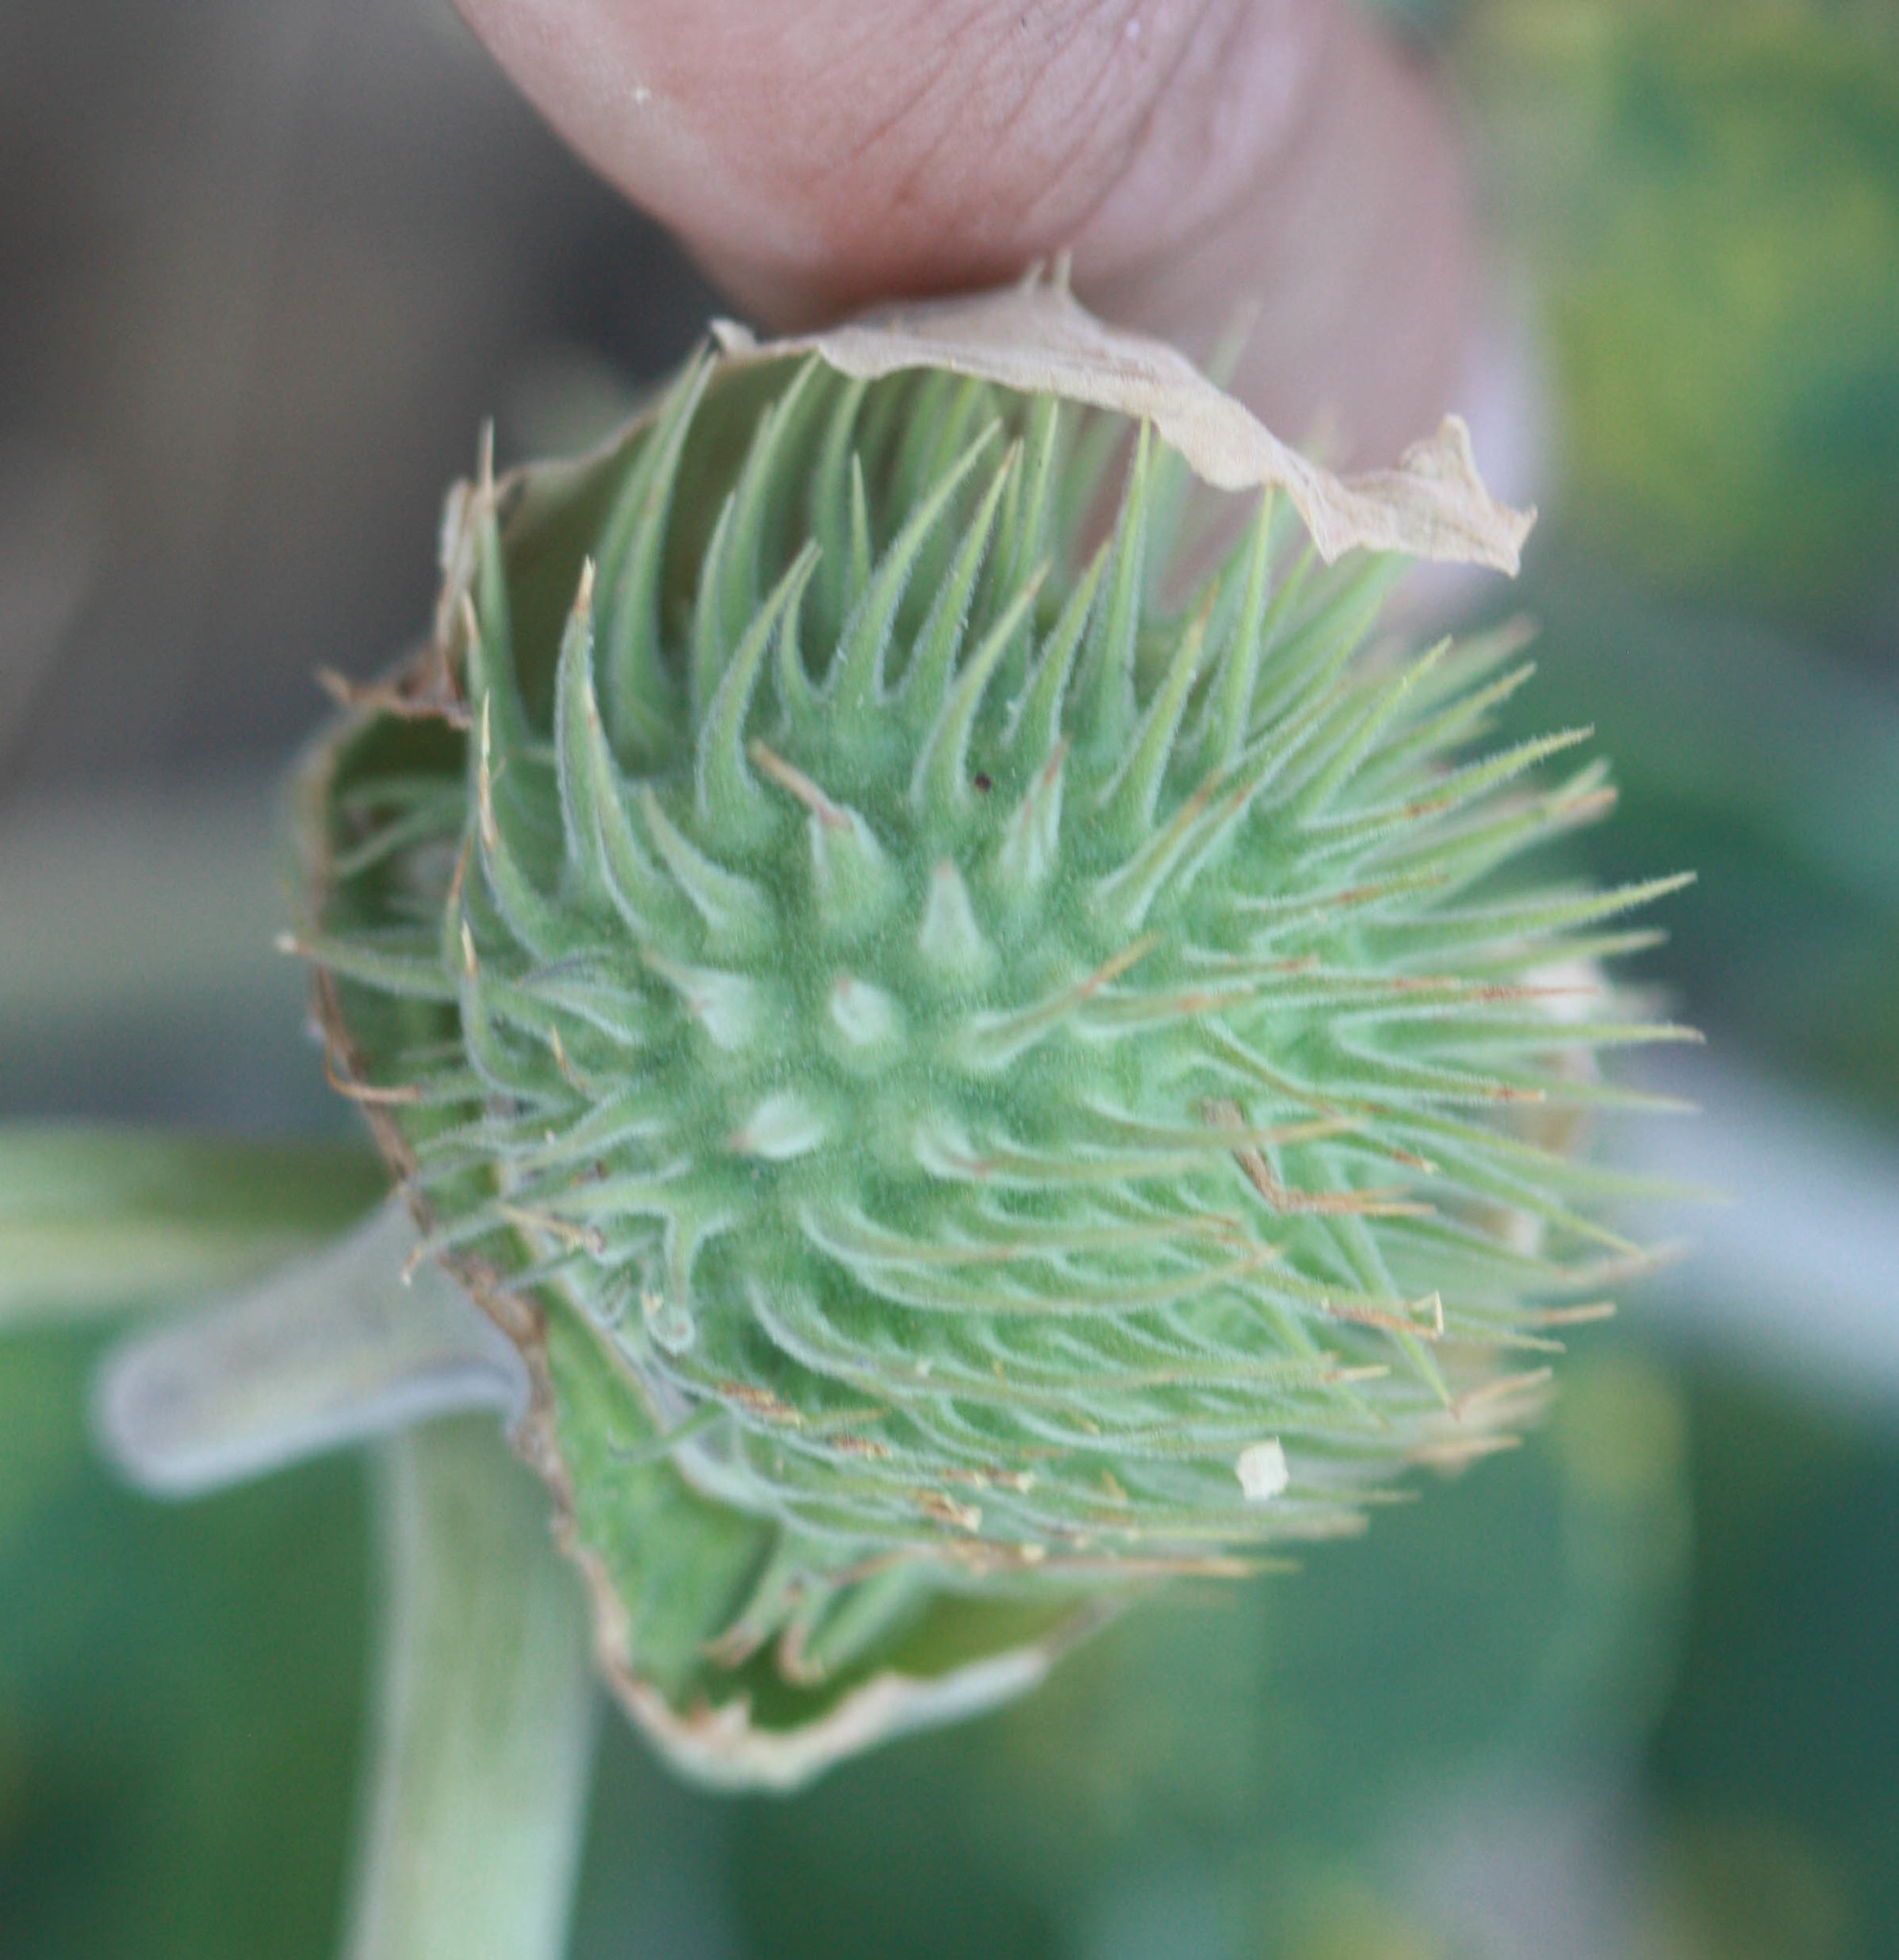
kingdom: Plantae
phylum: Tracheophyta
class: Magnoliopsida
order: Solanales
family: Solanaceae
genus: Datura
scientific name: Datura wrightii
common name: Sacred thorn-apple
